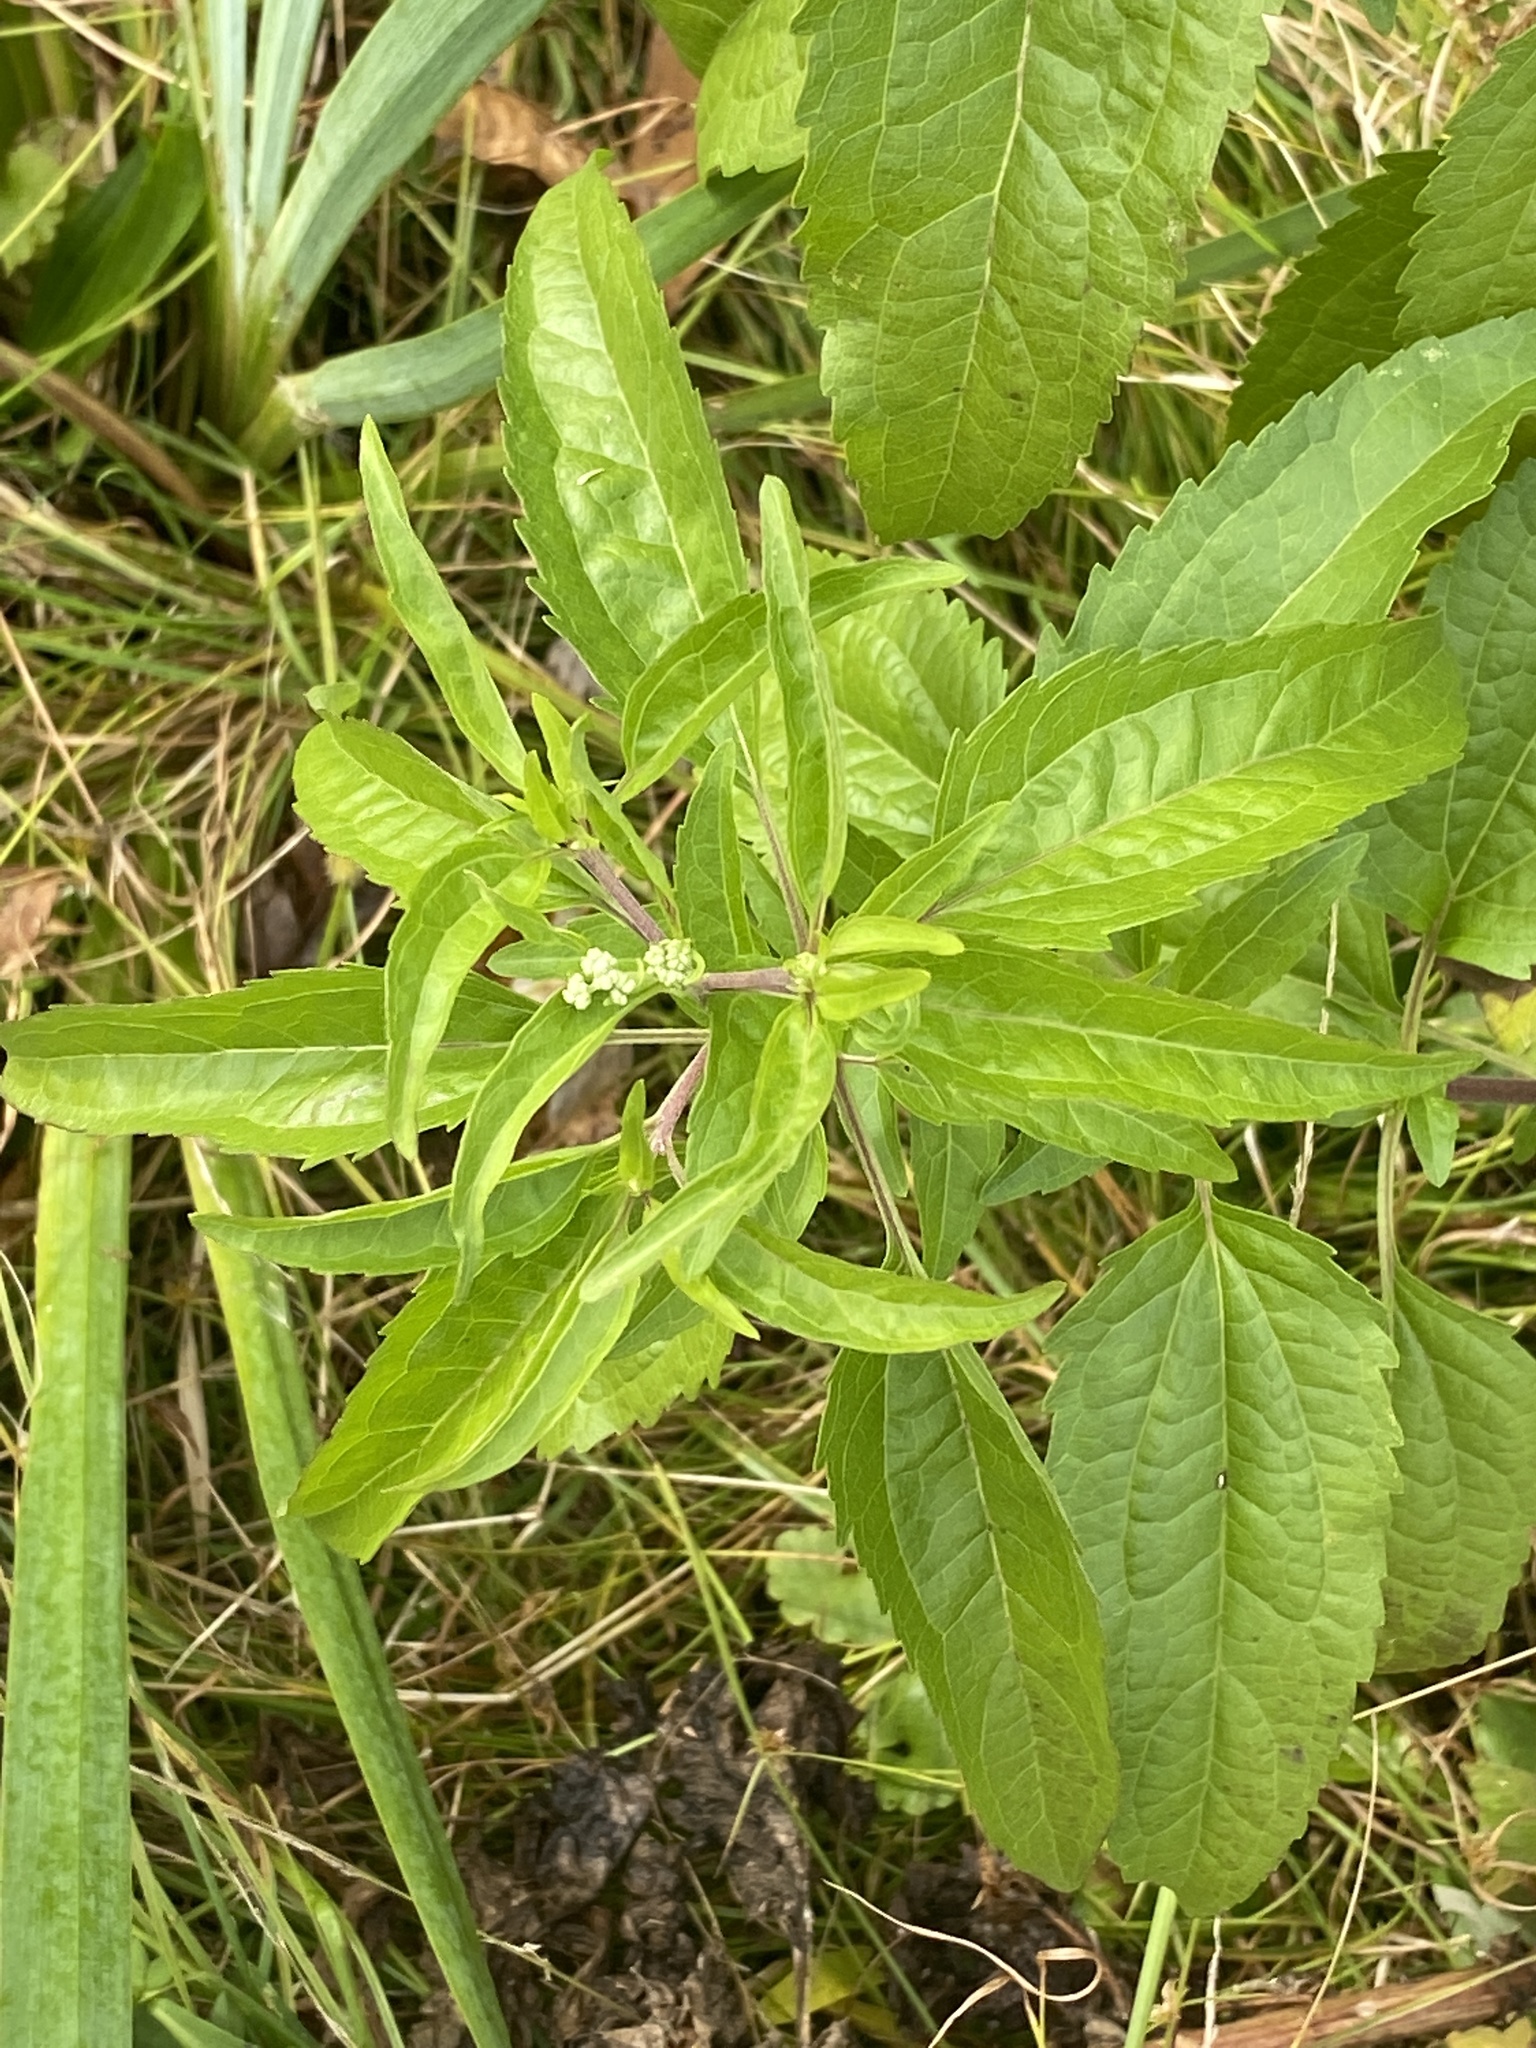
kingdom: Plantae
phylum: Tracheophyta
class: Magnoliopsida
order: Asterales
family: Asteraceae
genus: Eupatorium
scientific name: Eupatorium serotinum
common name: Late boneset
